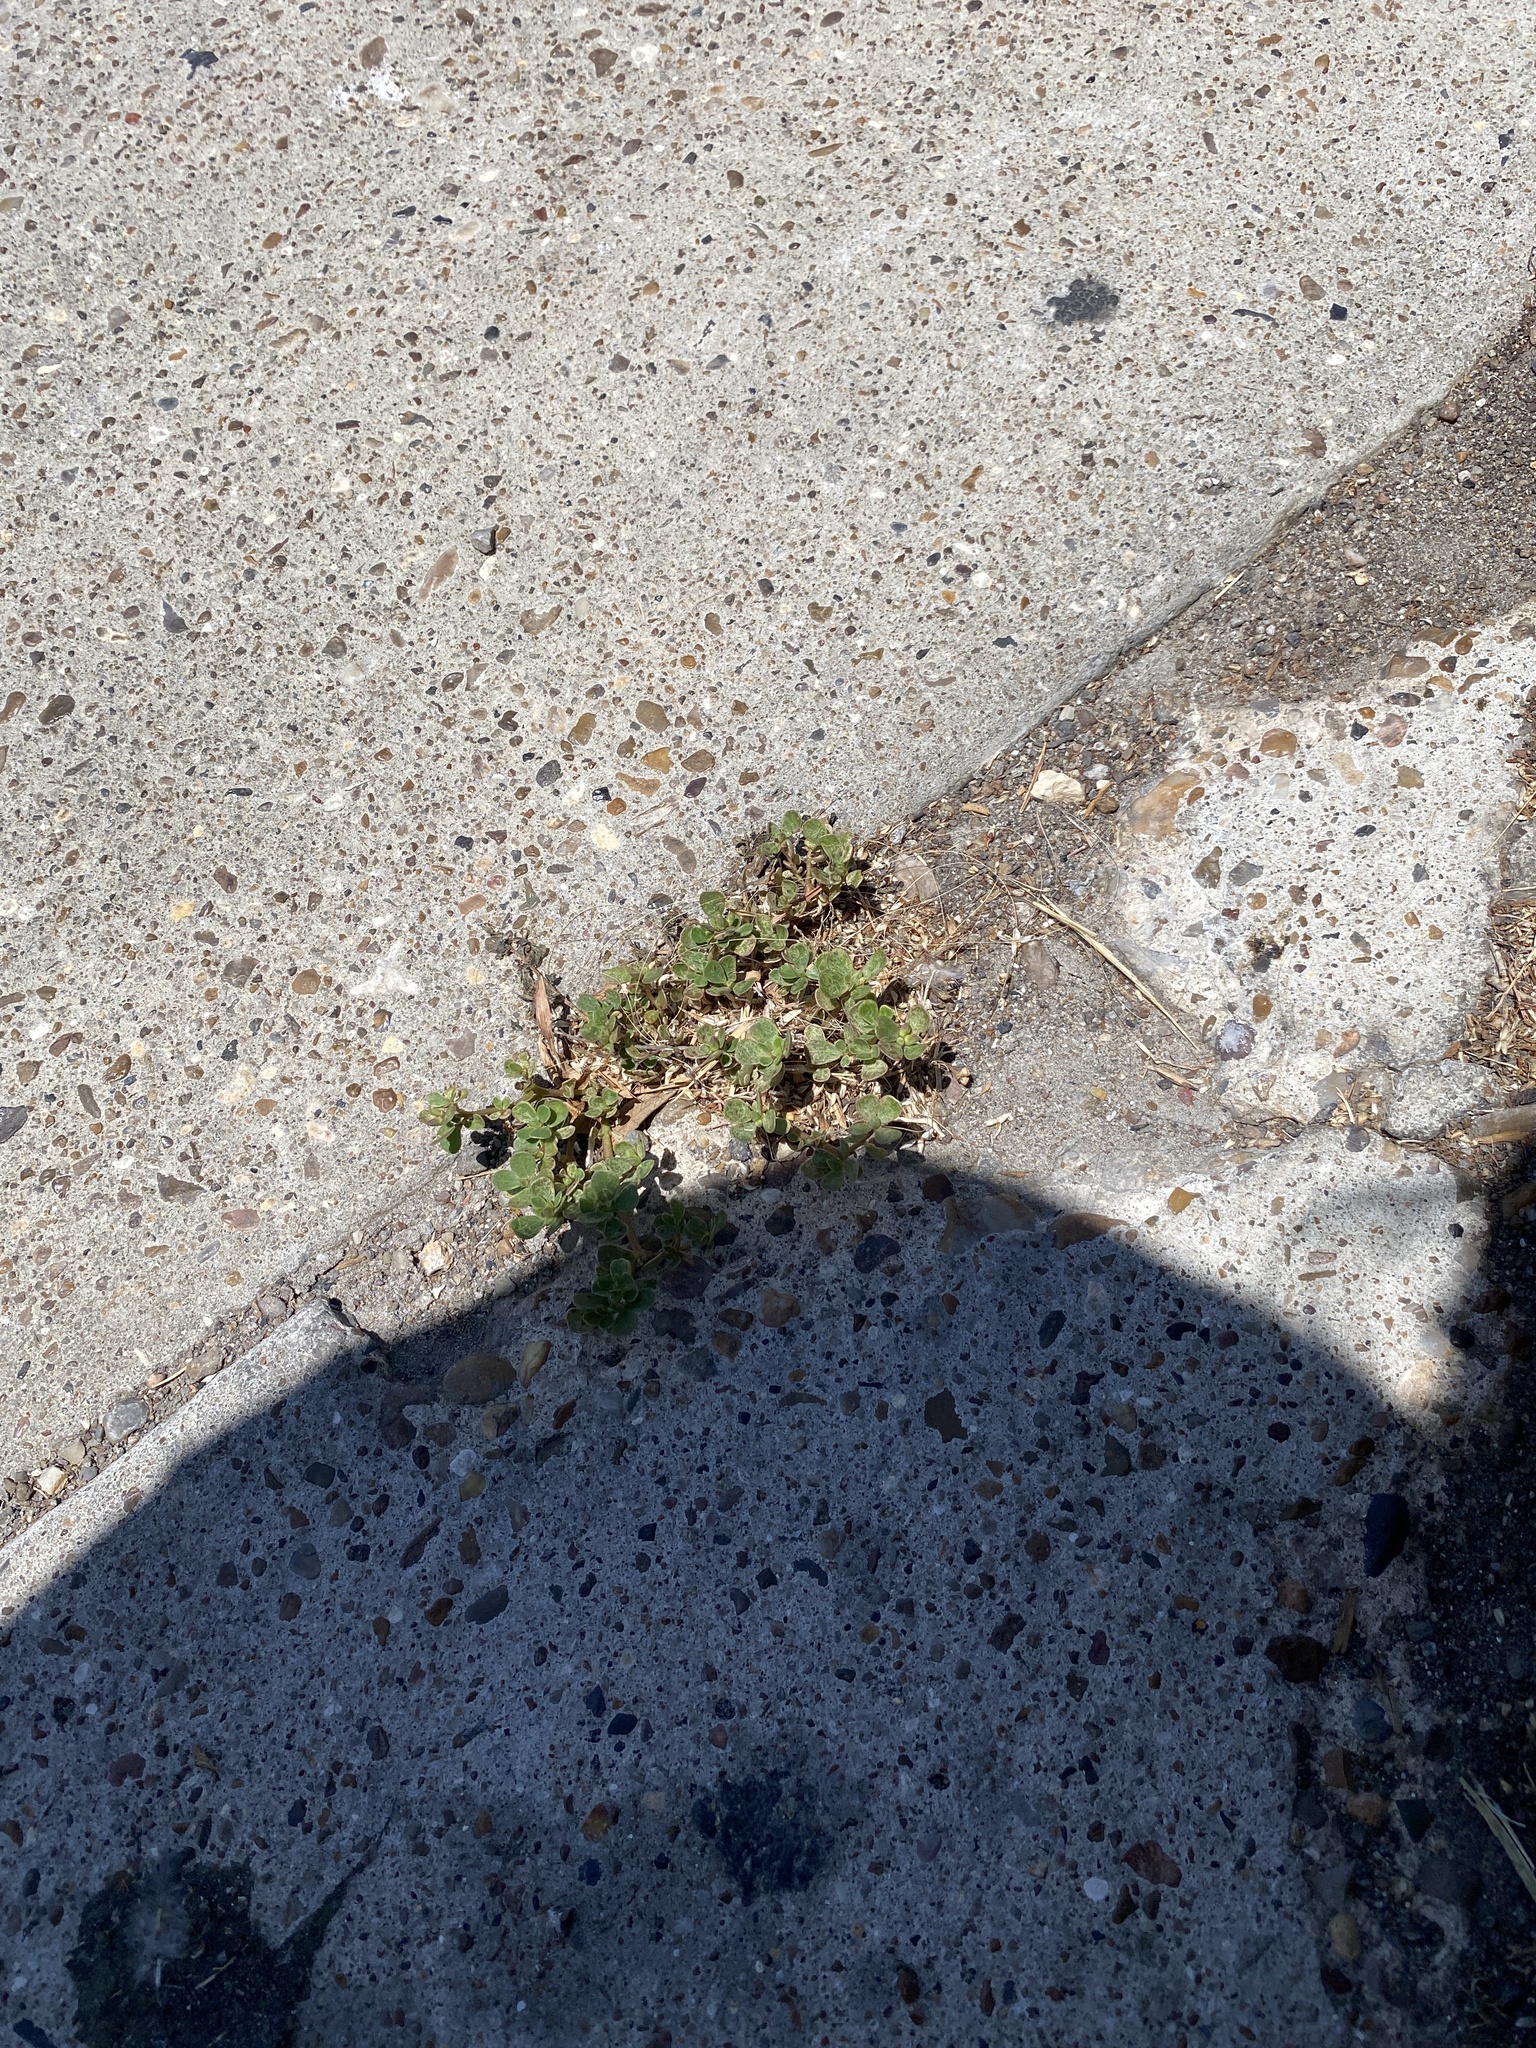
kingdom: Plantae
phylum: Tracheophyta
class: Magnoliopsida
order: Caryophyllales
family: Portulacaceae
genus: Portulaca
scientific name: Portulaca oleracea
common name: Common purslane
